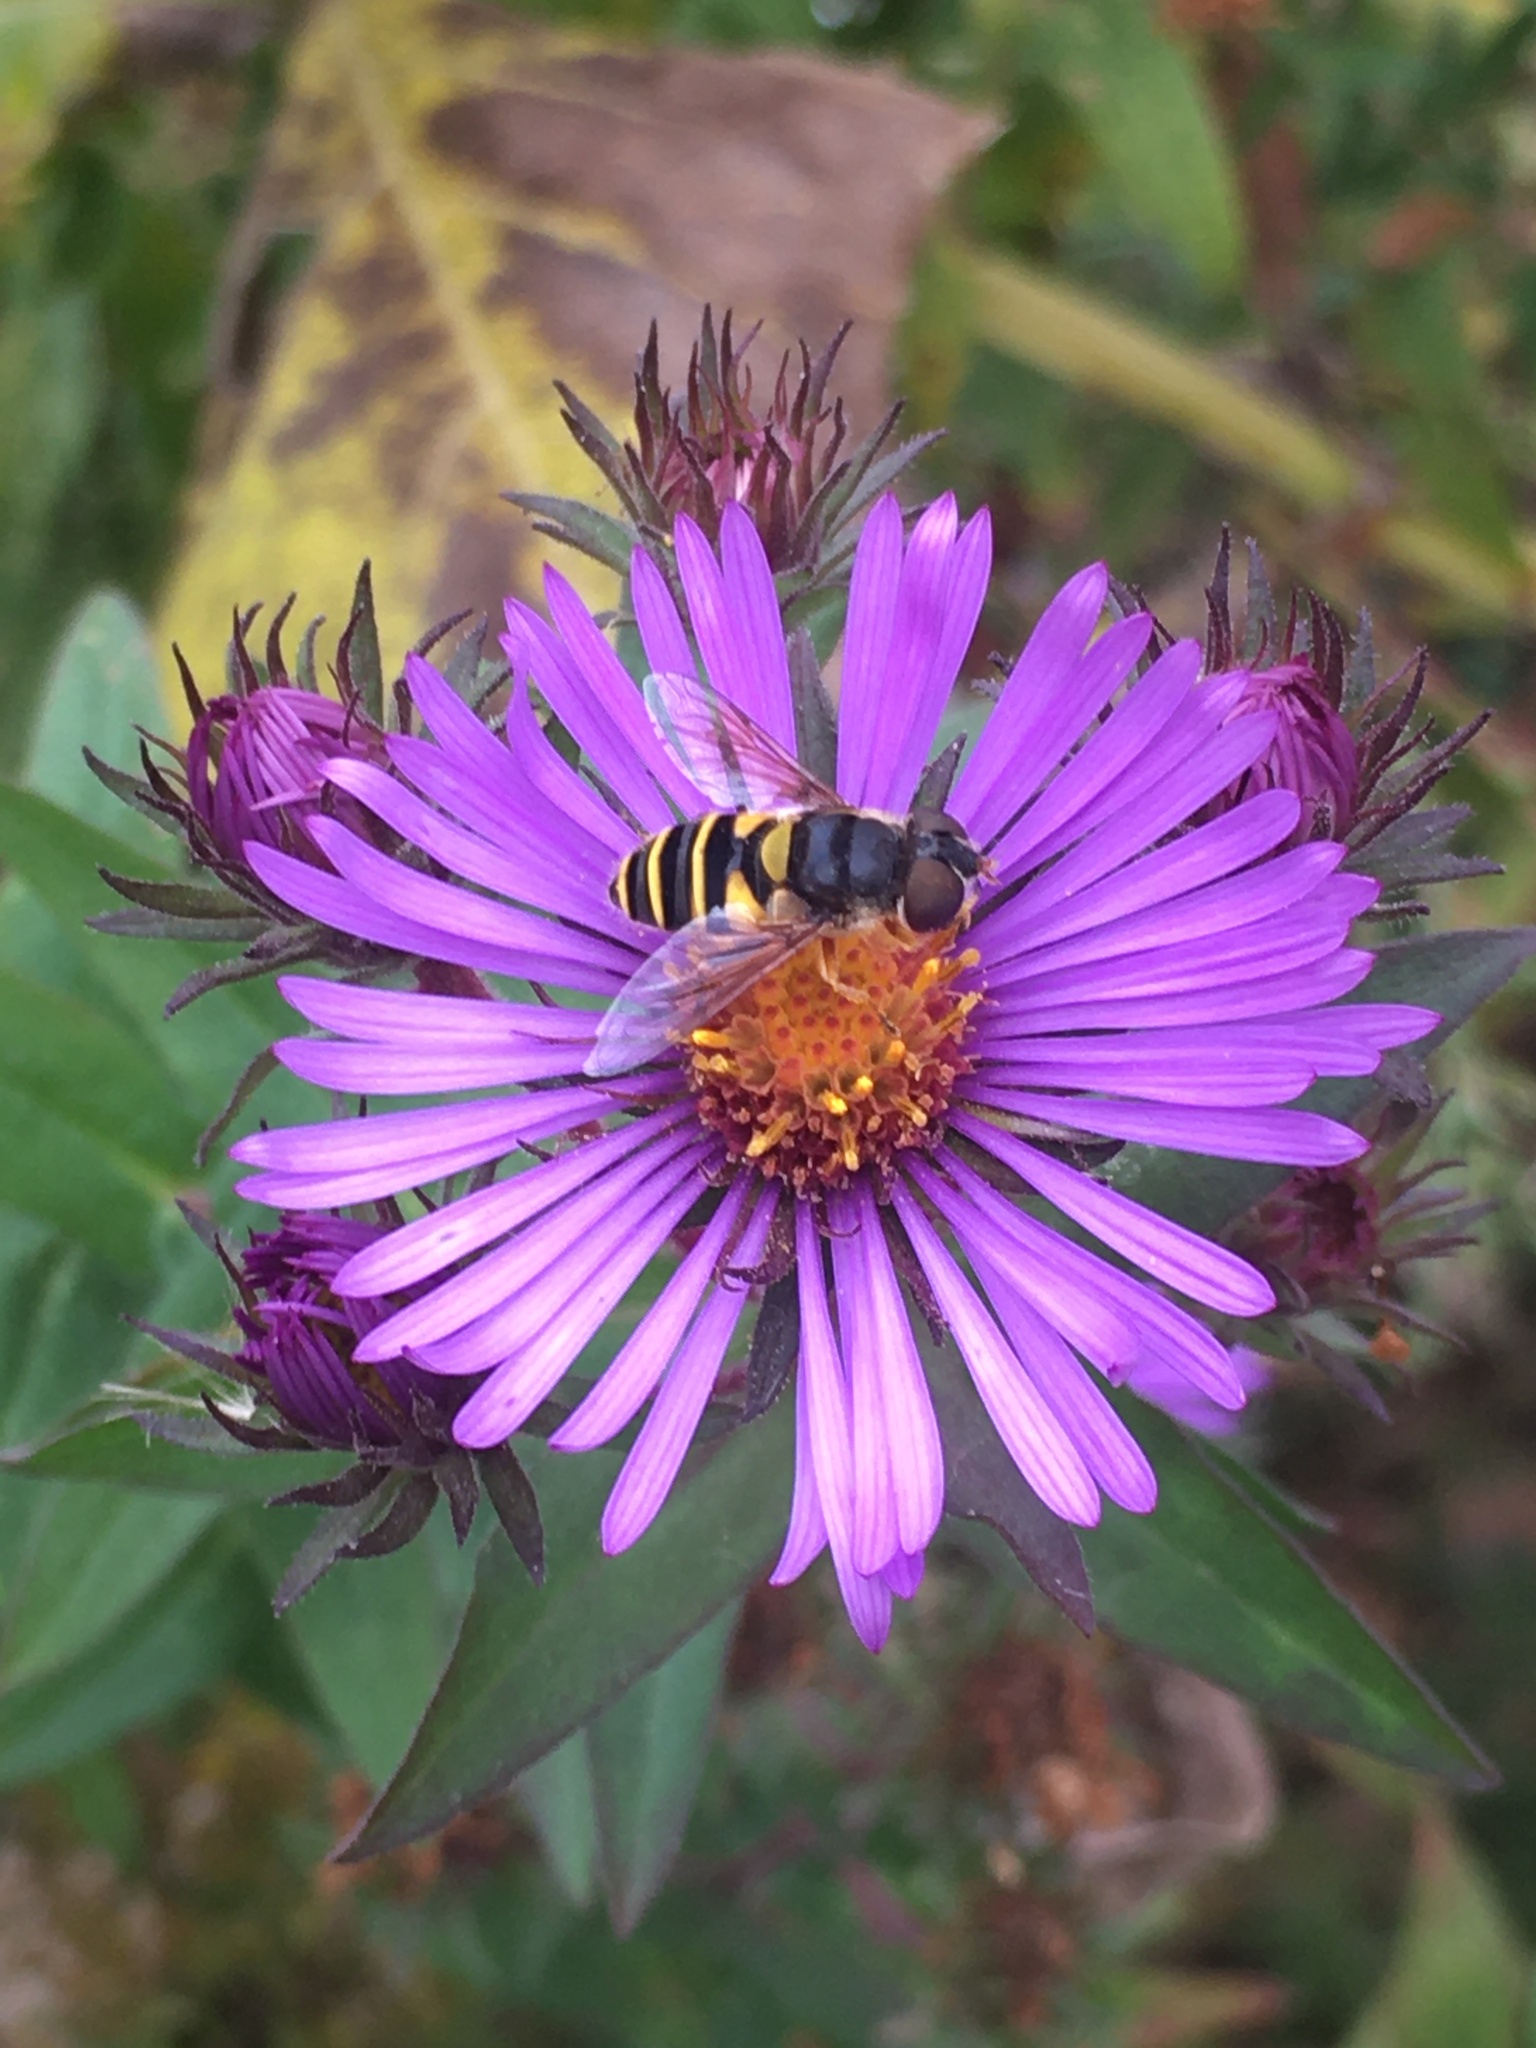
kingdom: Animalia
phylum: Arthropoda
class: Insecta
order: Diptera
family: Syrphidae
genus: Eristalis
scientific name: Eristalis transversa
